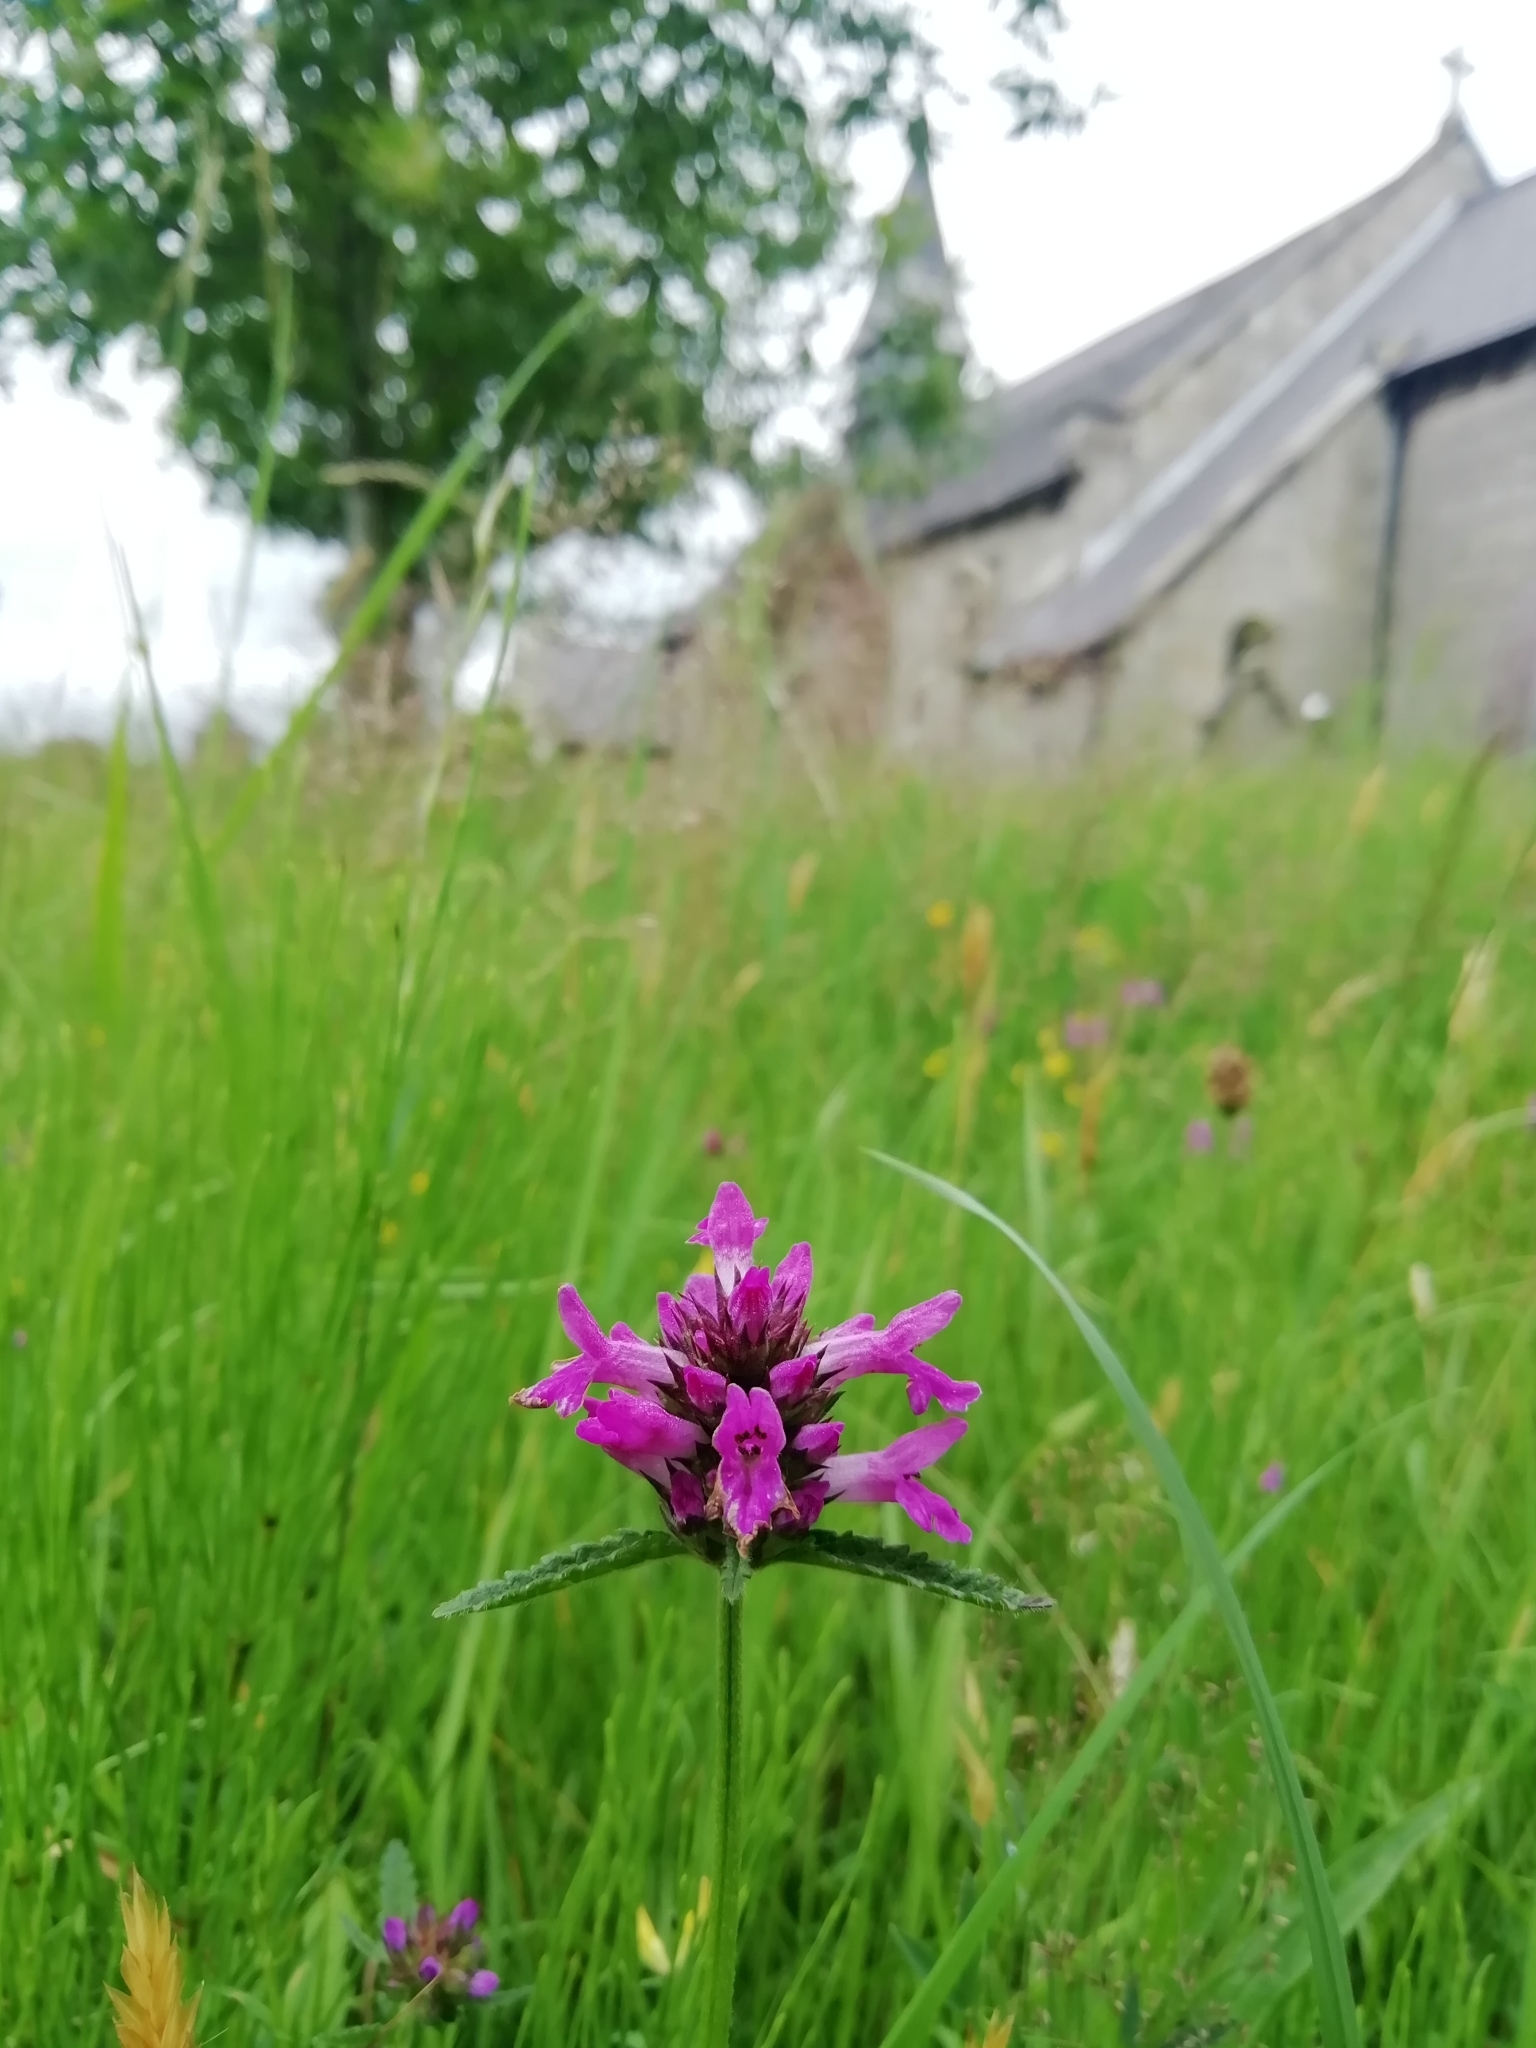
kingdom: Plantae
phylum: Tracheophyta
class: Magnoliopsida
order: Lamiales
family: Lamiaceae
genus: Betonica
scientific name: Betonica officinalis
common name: Bishop's-wort
